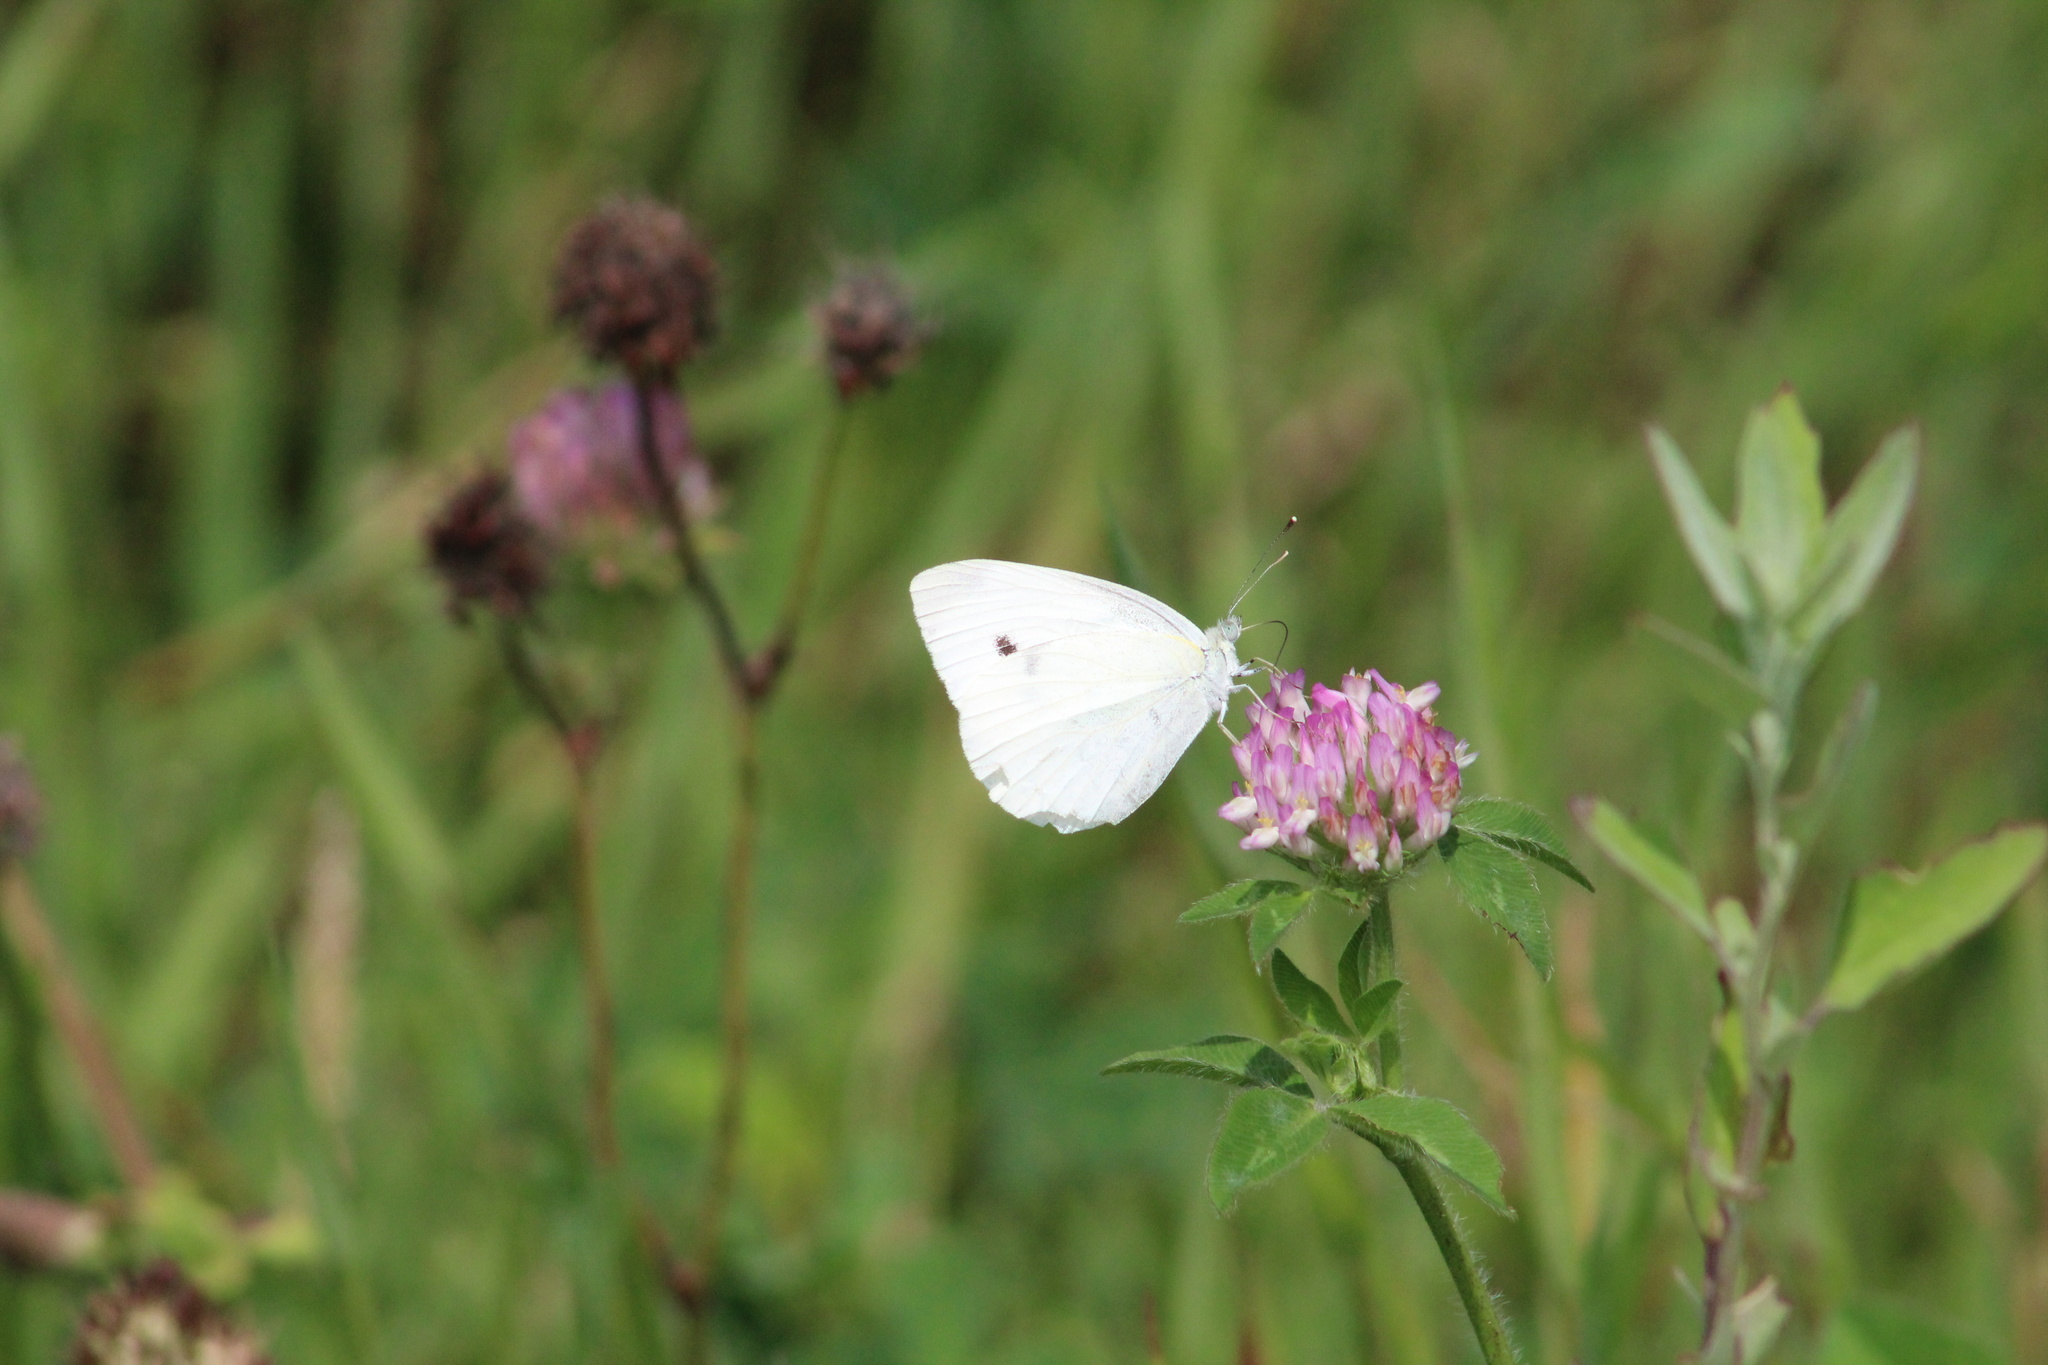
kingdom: Animalia
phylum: Arthropoda
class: Insecta
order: Lepidoptera
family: Pieridae
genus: Pieris
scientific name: Pieris rapae
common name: Small white
